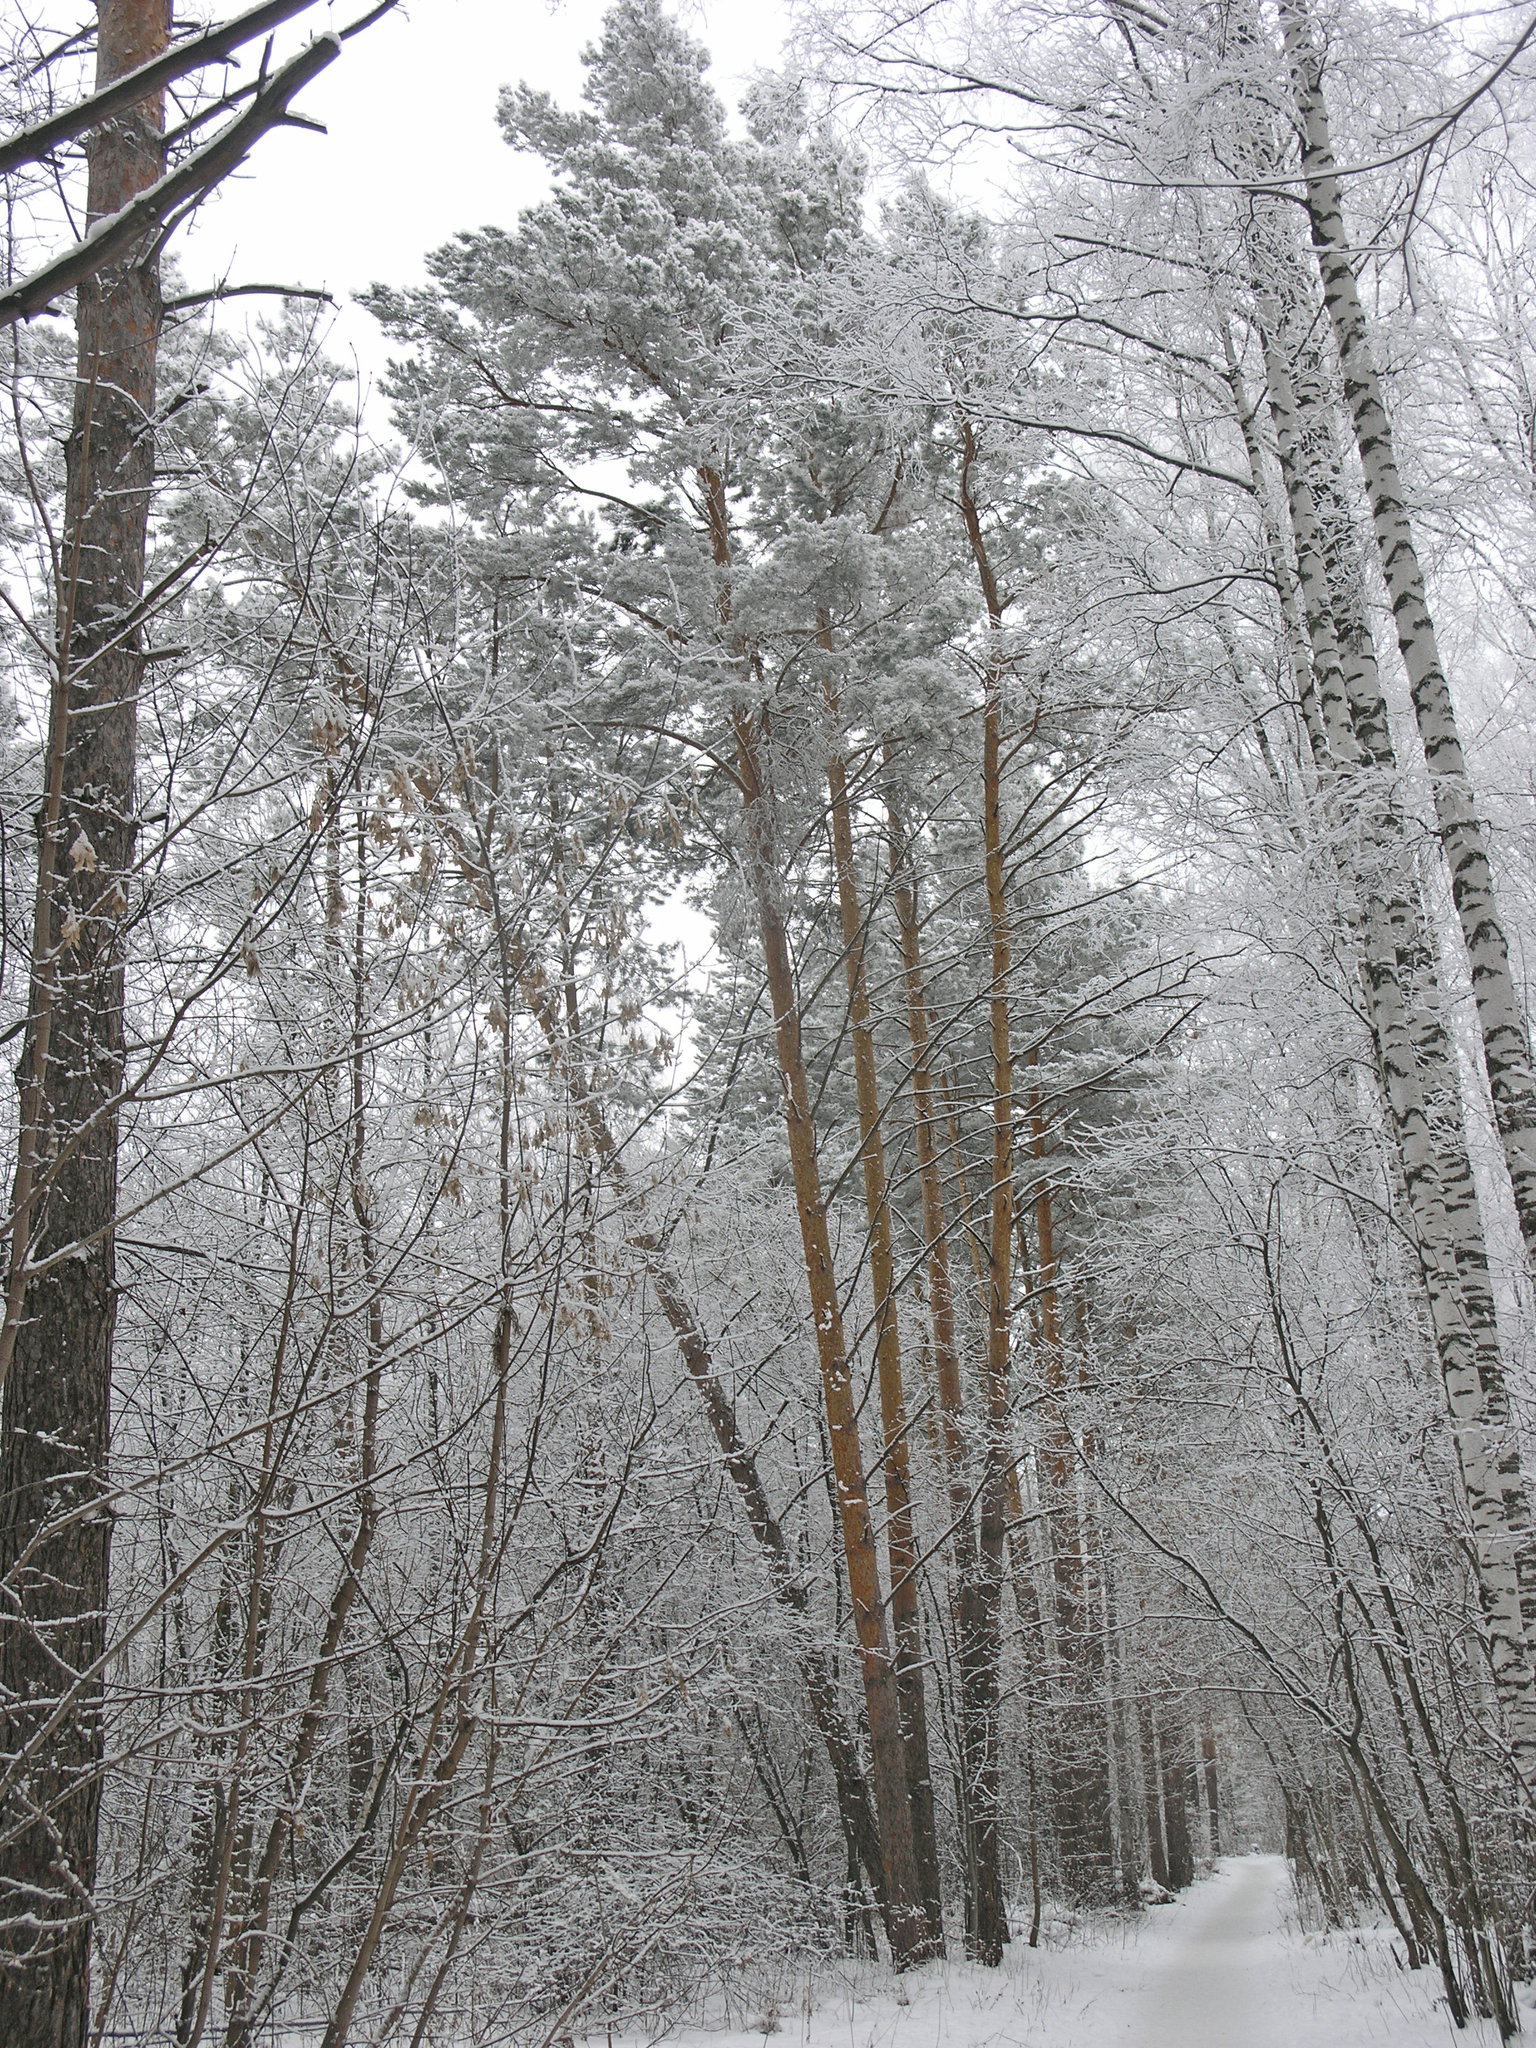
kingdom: Plantae
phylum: Tracheophyta
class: Pinopsida
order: Pinales
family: Pinaceae
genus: Pinus
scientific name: Pinus sylvestris
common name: Scots pine
